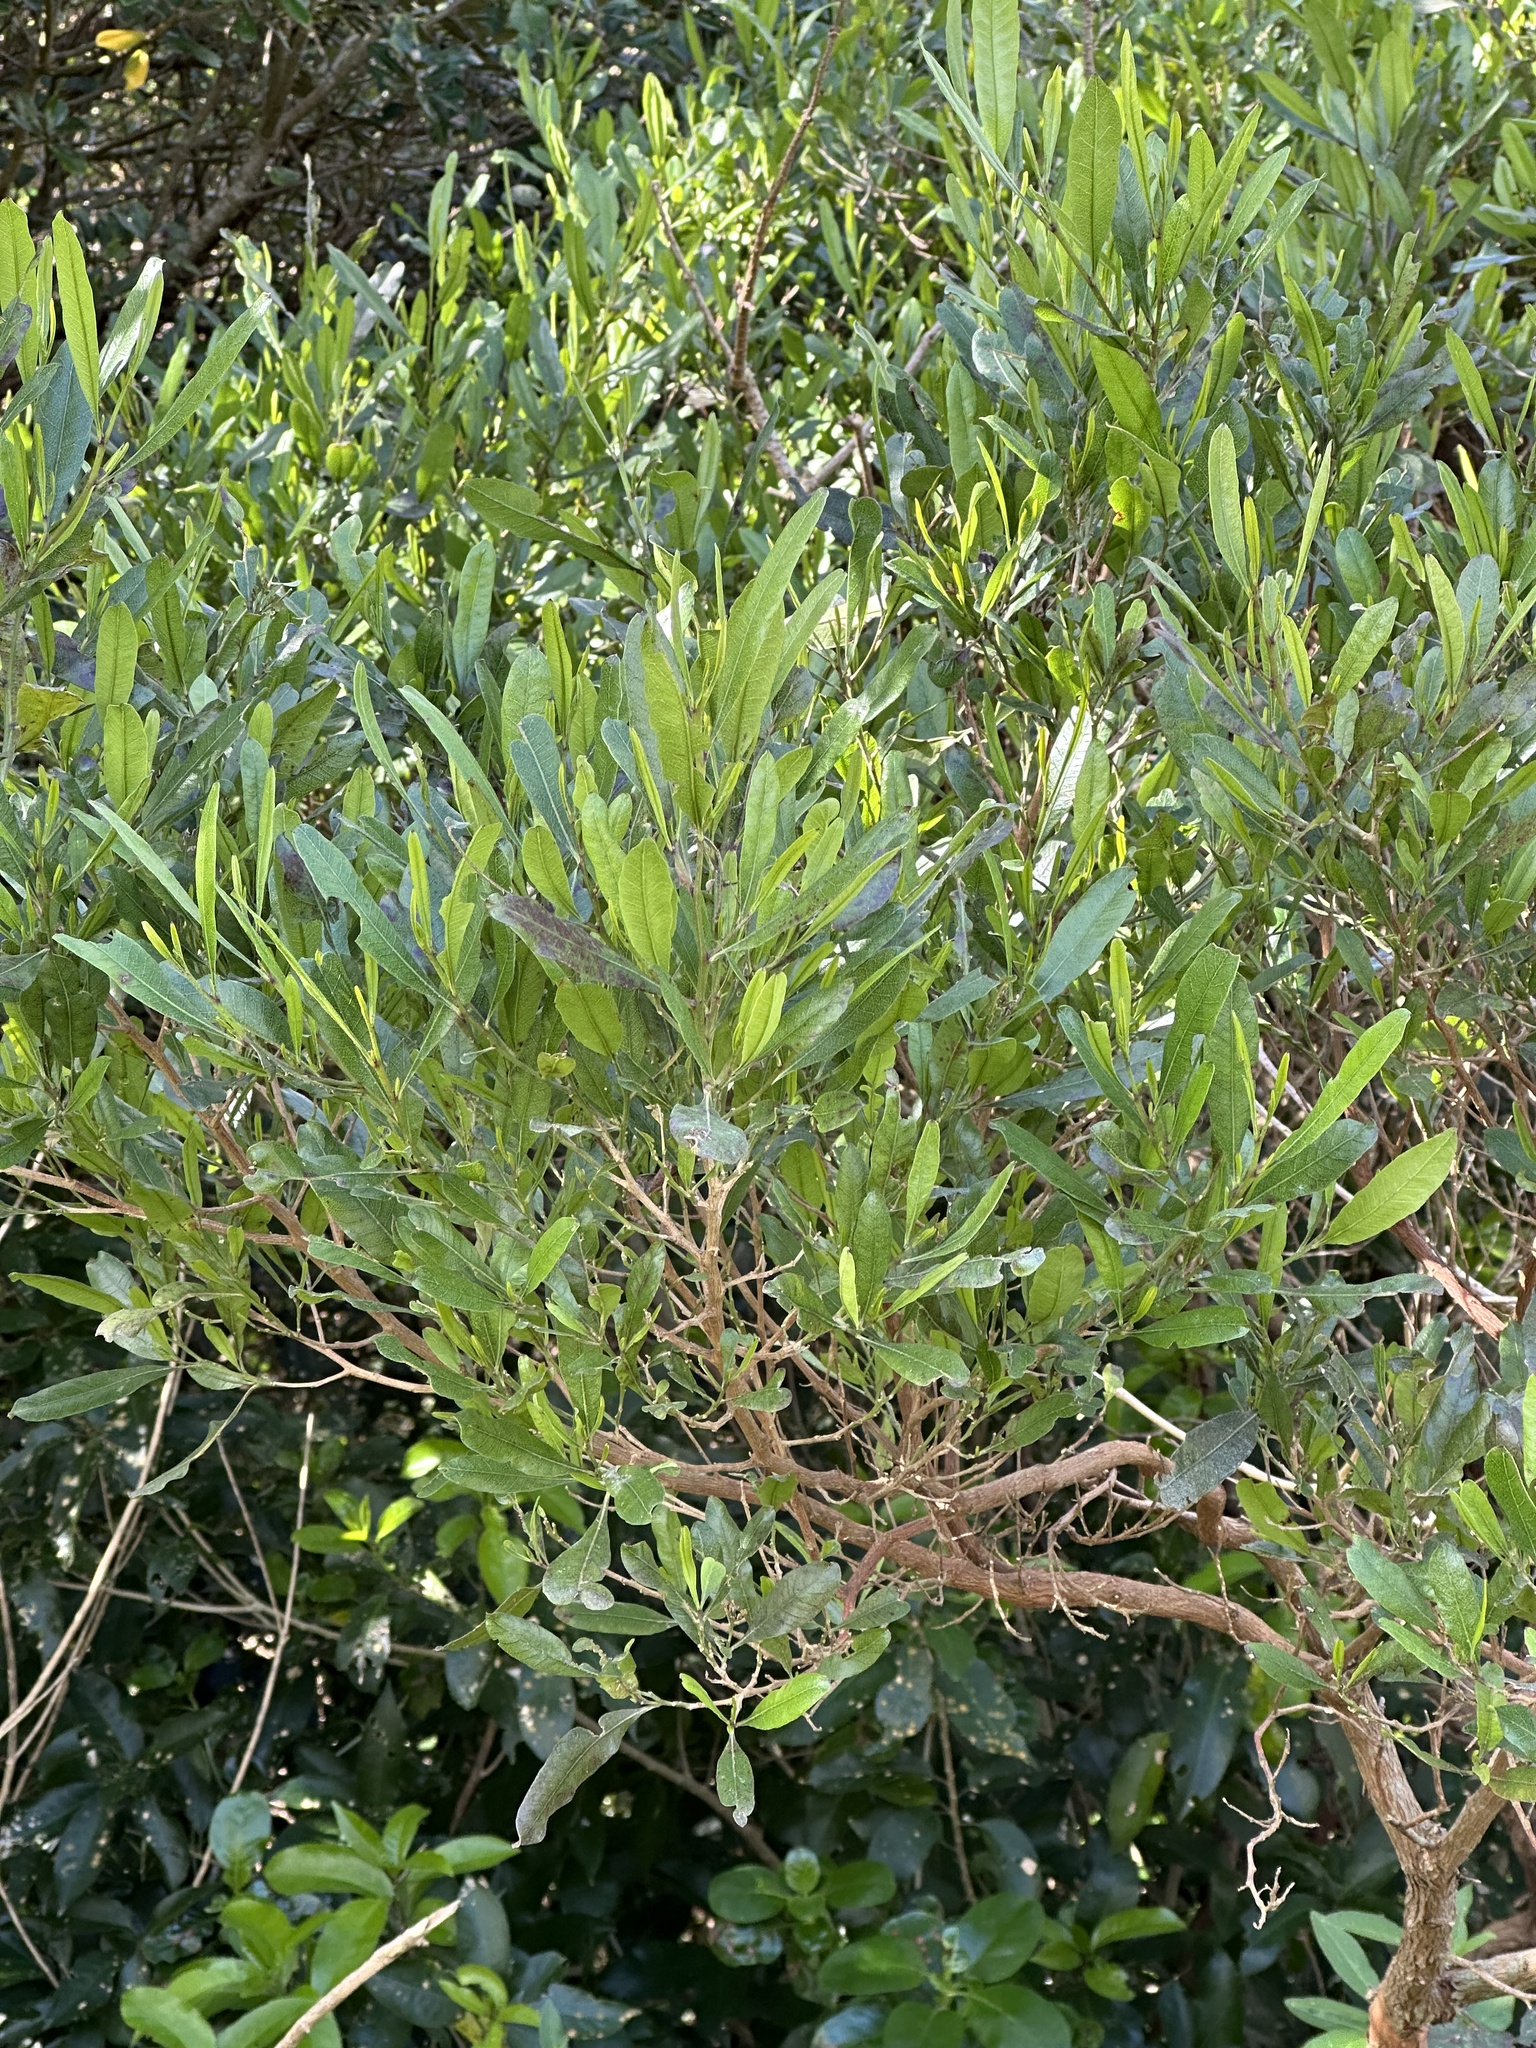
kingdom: Plantae
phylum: Tracheophyta
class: Magnoliopsida
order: Sapindales
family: Sapindaceae
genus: Dodonaea
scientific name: Dodonaea viscosa
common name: Hopbush
